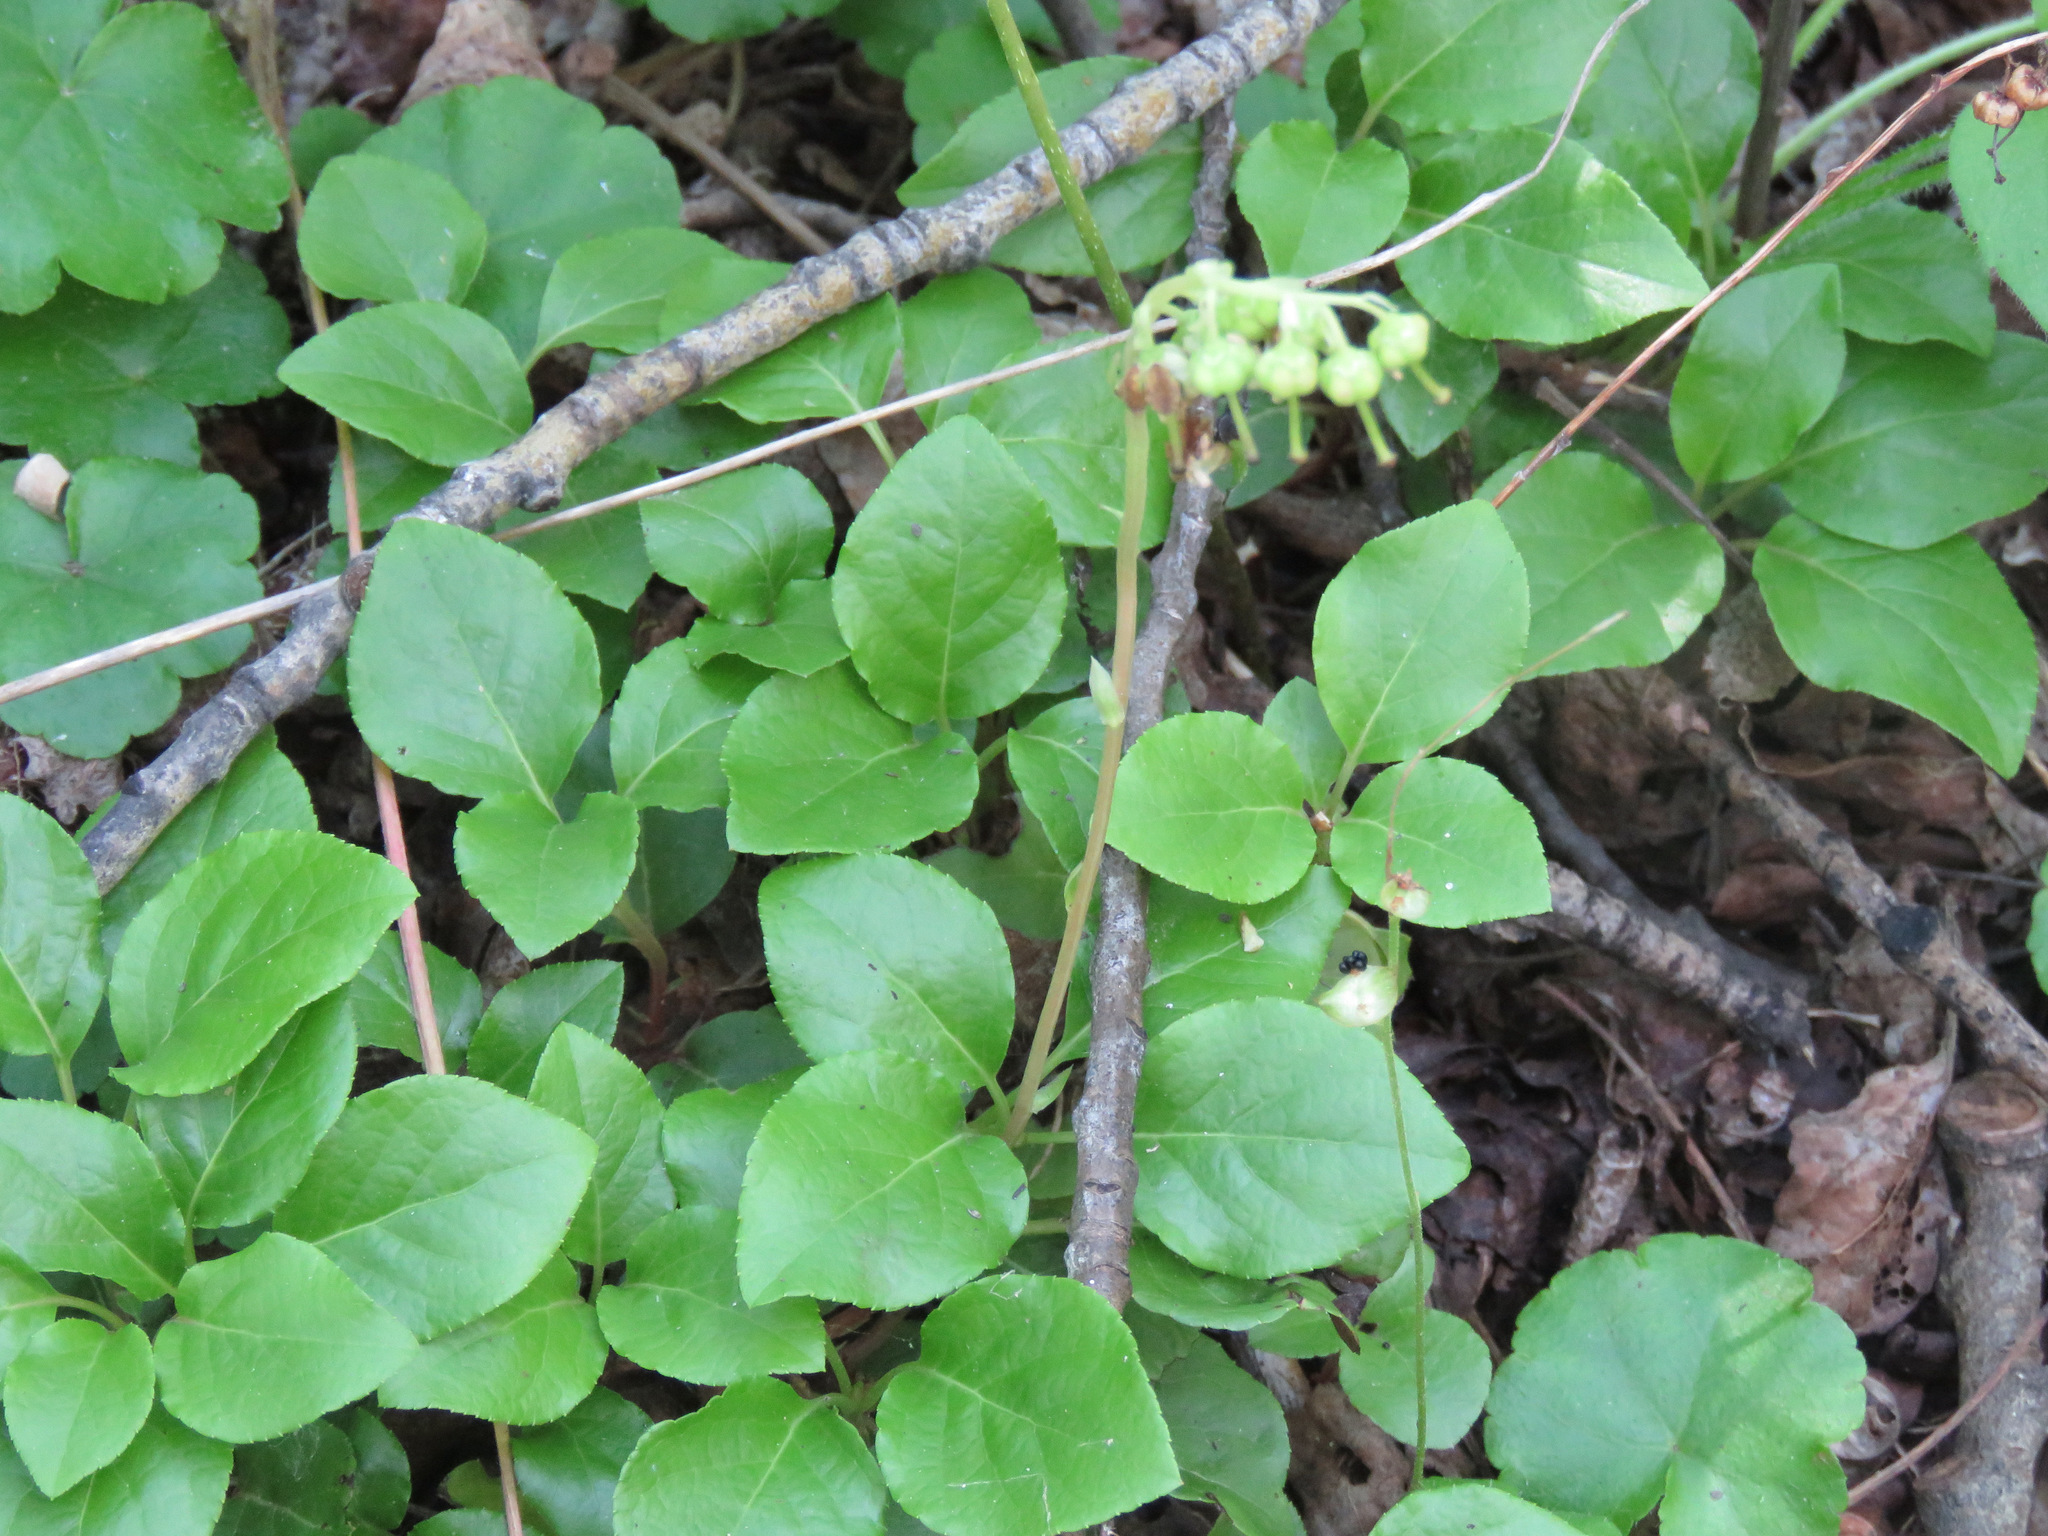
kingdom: Plantae
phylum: Tracheophyta
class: Magnoliopsida
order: Ericales
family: Ericaceae
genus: Orthilia
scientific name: Orthilia secunda
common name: One-sided orthilia
